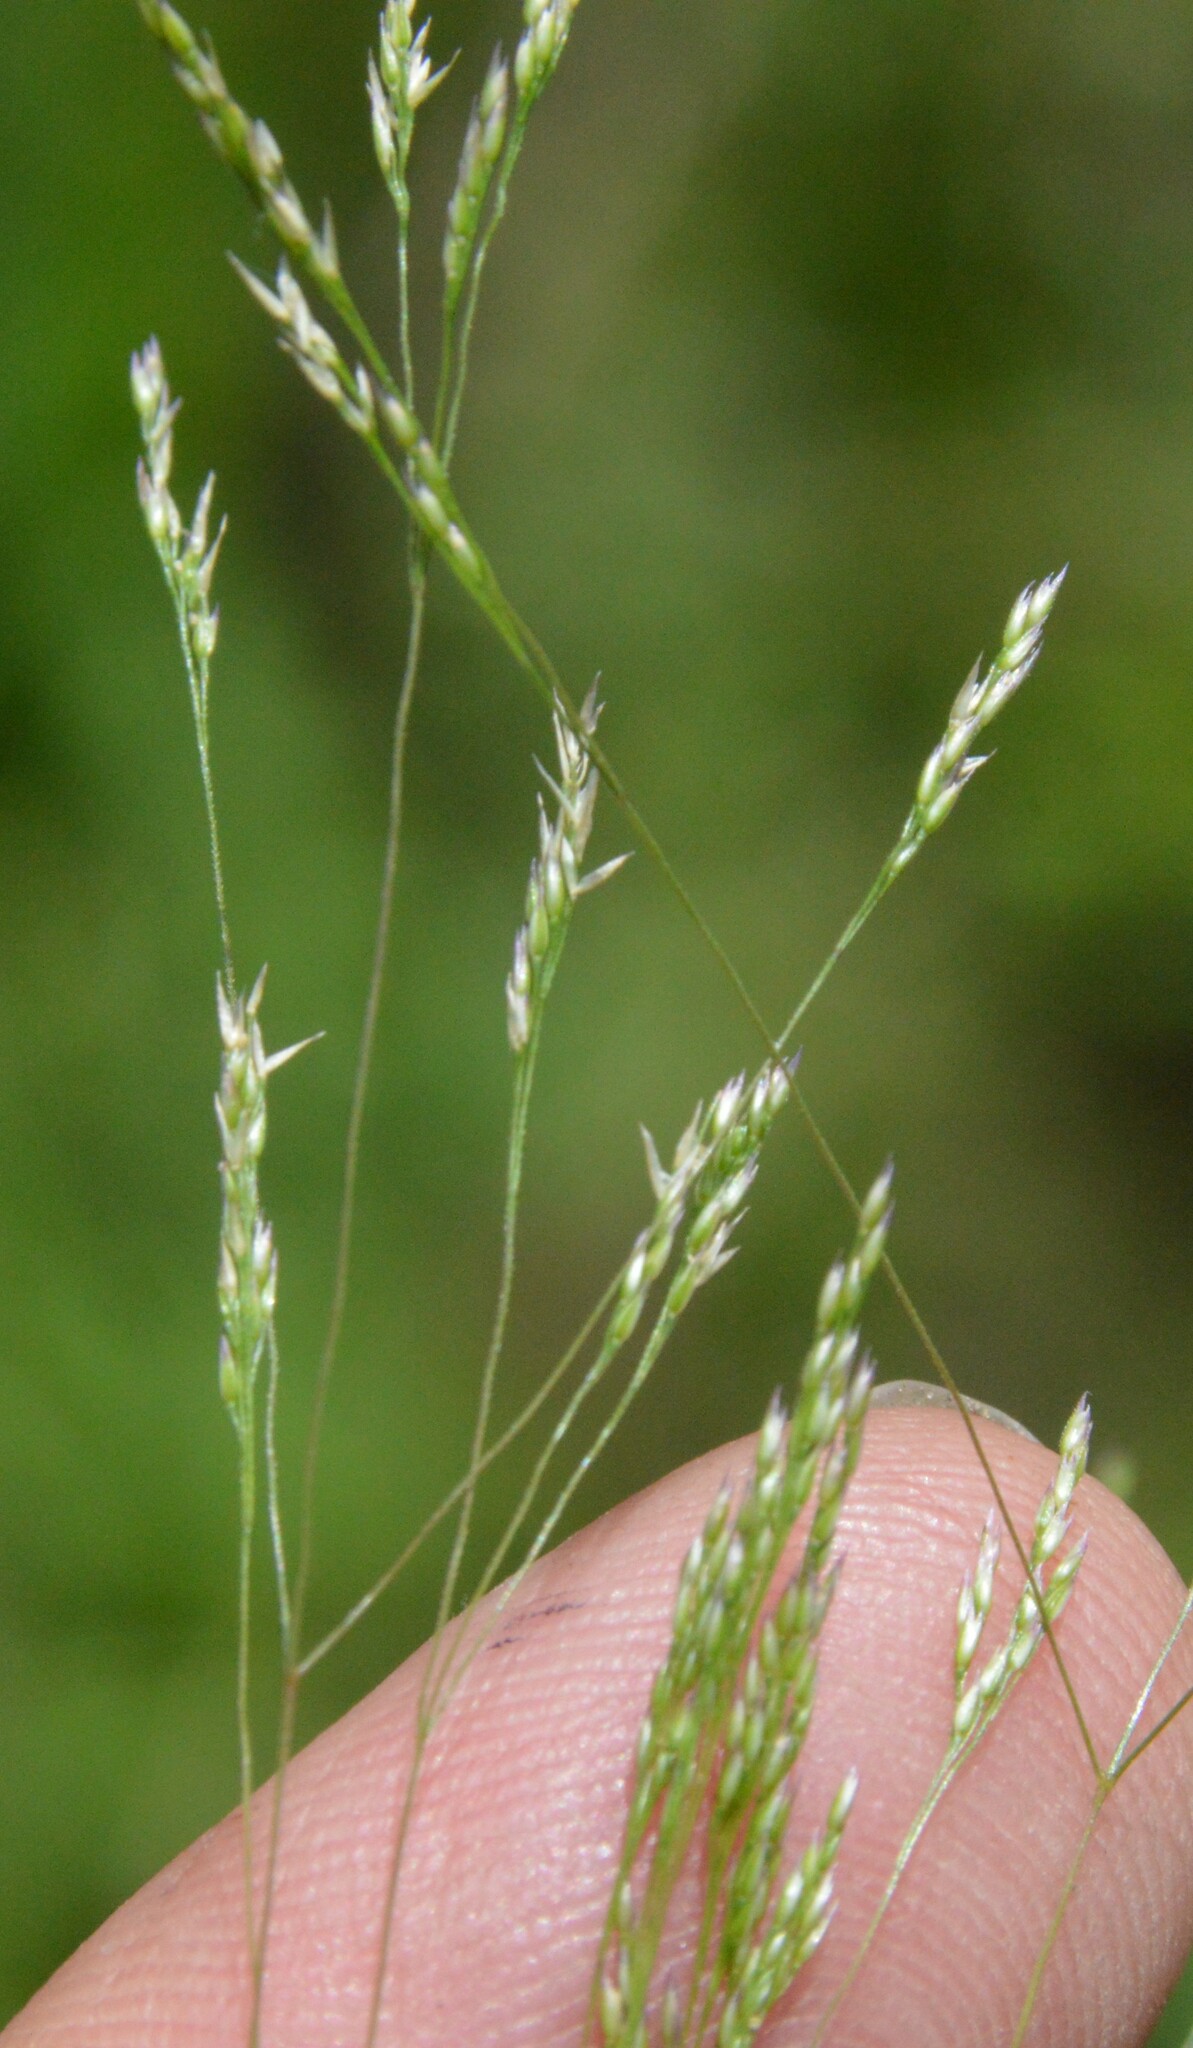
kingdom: Plantae
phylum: Tracheophyta
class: Liliopsida
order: Poales
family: Poaceae
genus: Agrostis
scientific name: Agrostis hyemalis
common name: Small bent
